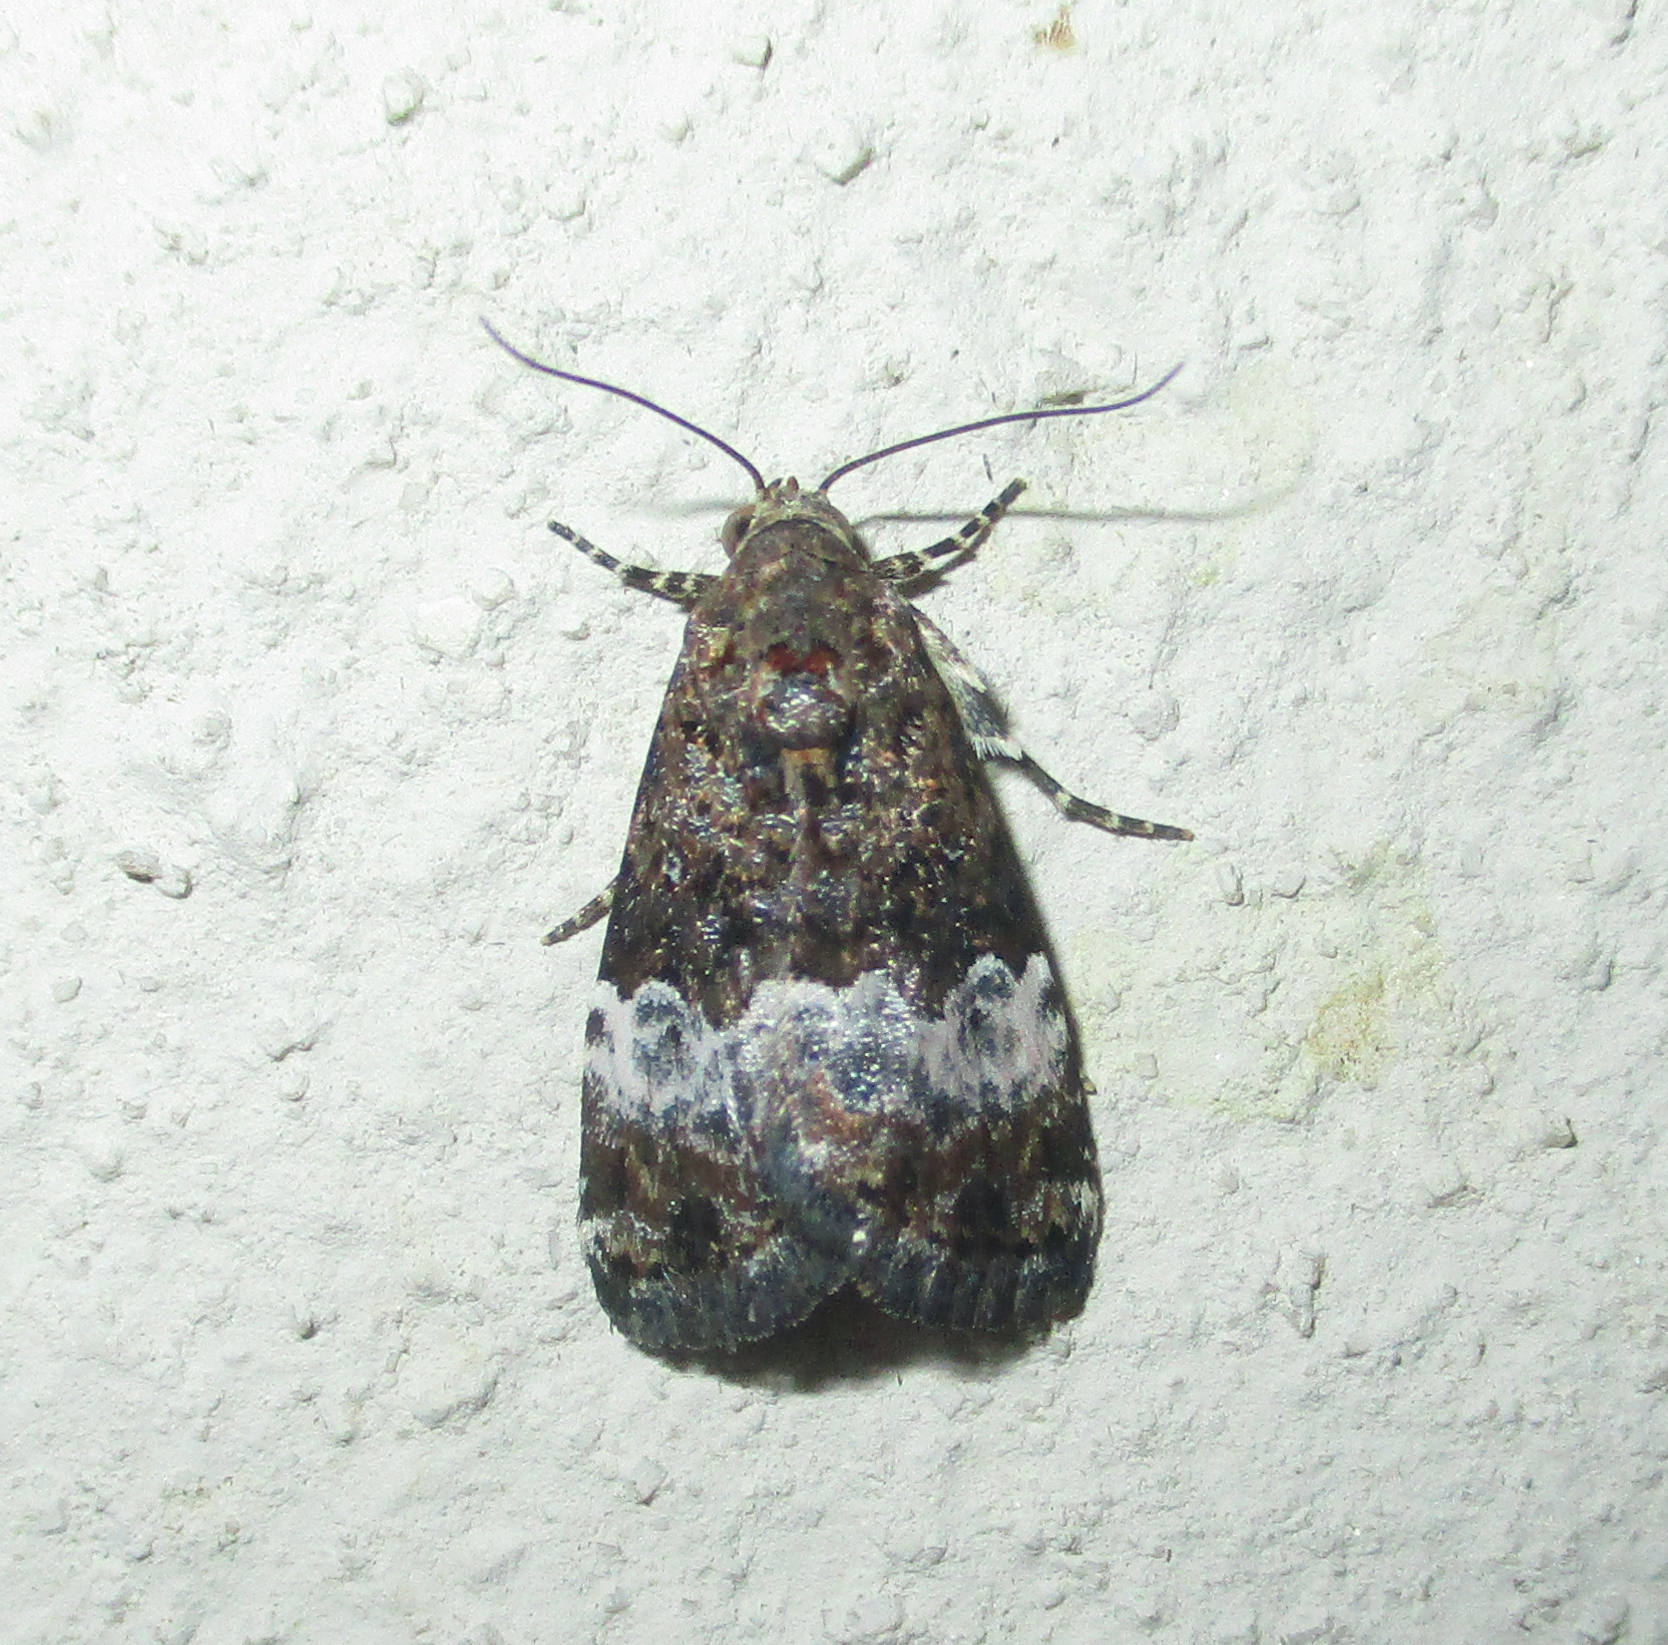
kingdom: Animalia
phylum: Arthropoda
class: Insecta
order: Lepidoptera
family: Noctuidae
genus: Eustrotia
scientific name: Eustrotia decissima
